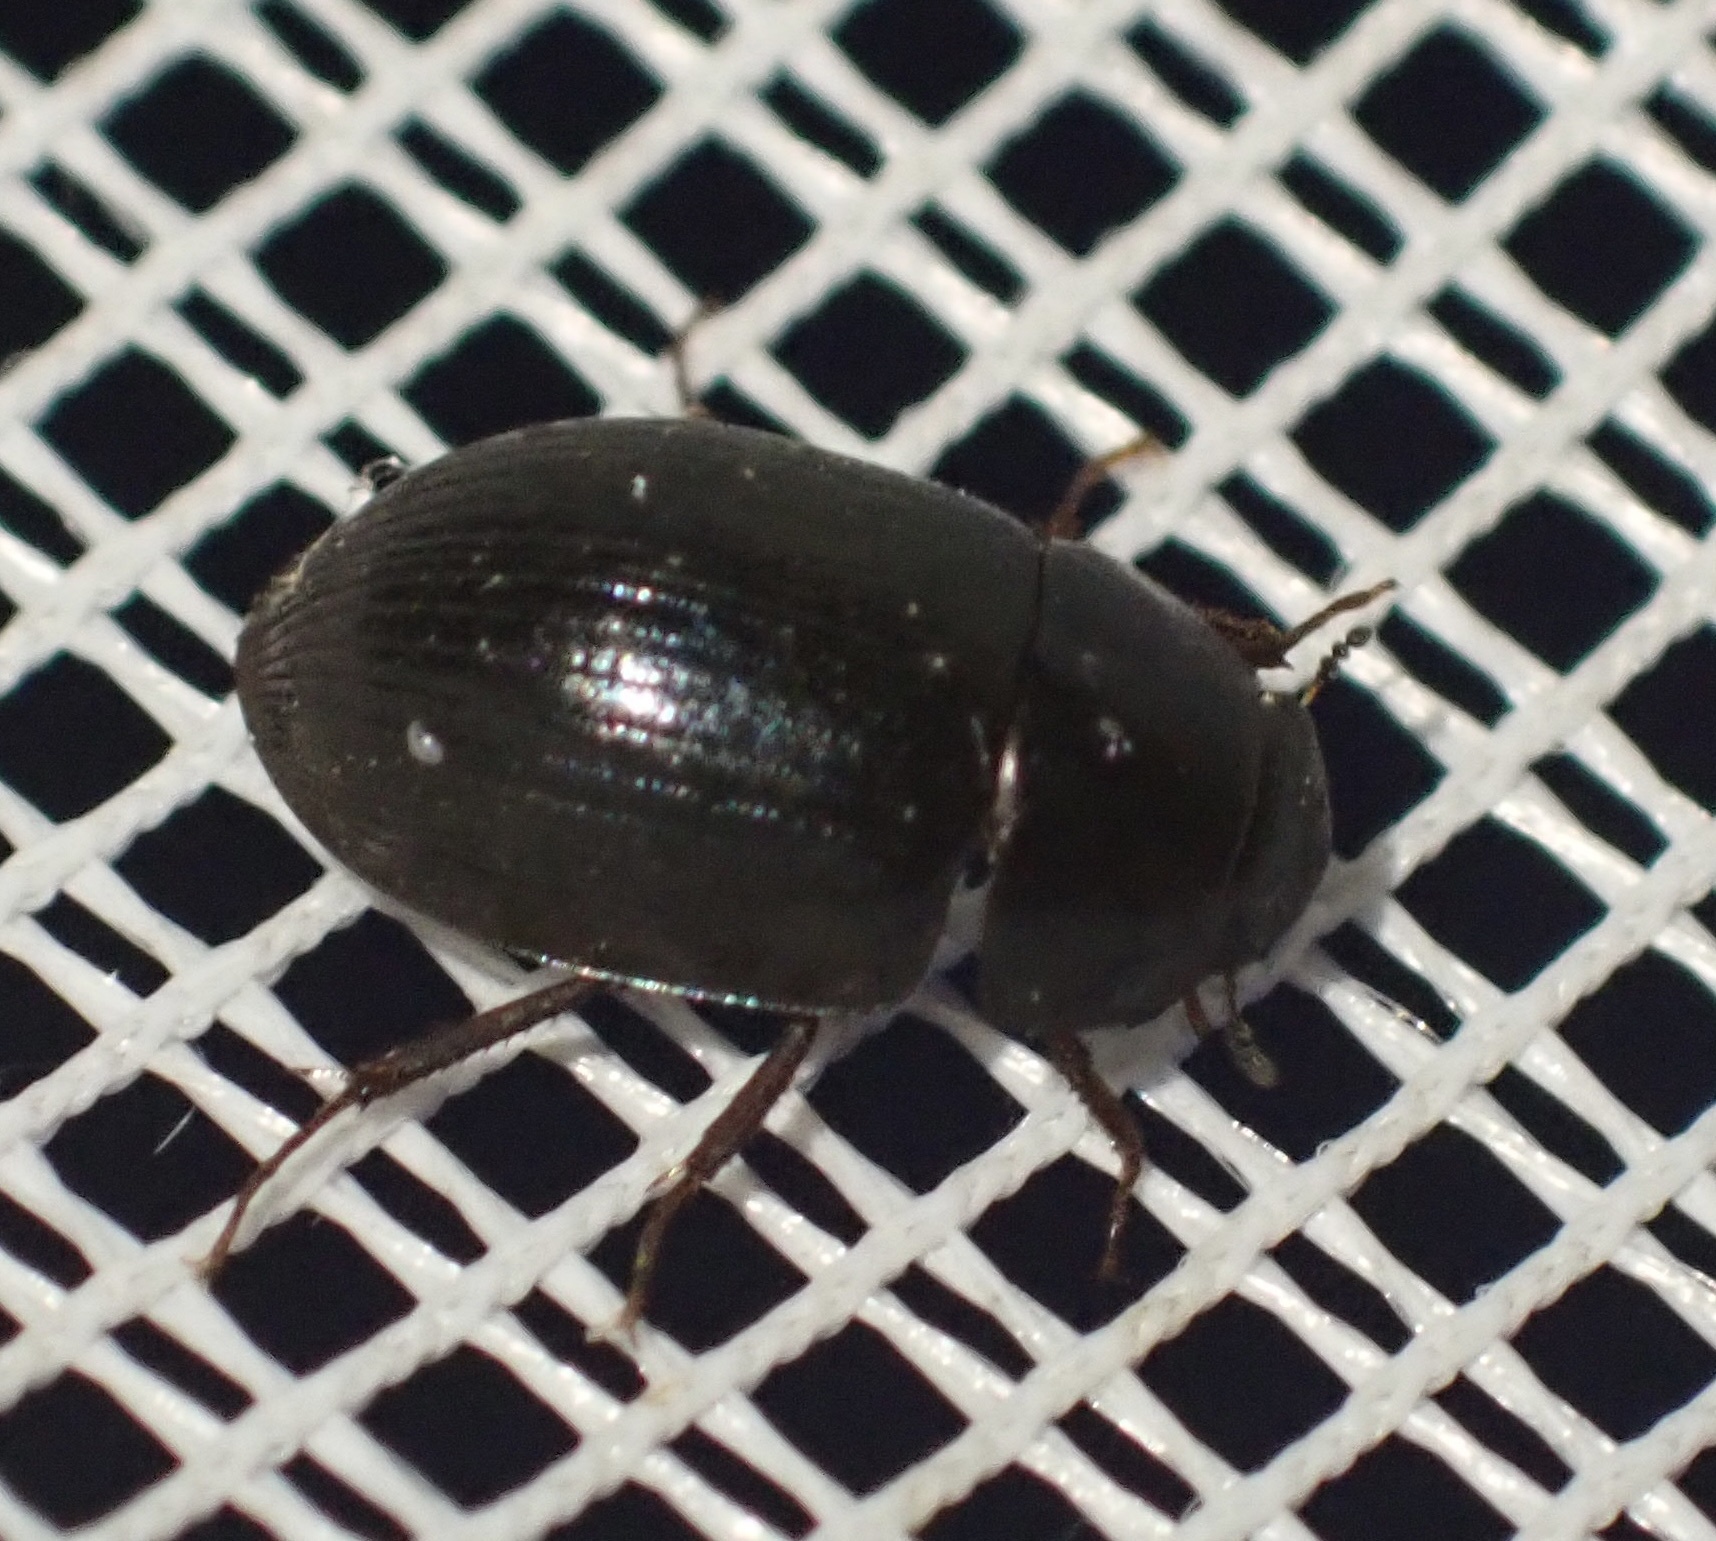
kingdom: Animalia
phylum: Arthropoda
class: Insecta
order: Coleoptera
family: Hydrophilidae
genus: Hydrobius
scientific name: Hydrobius
